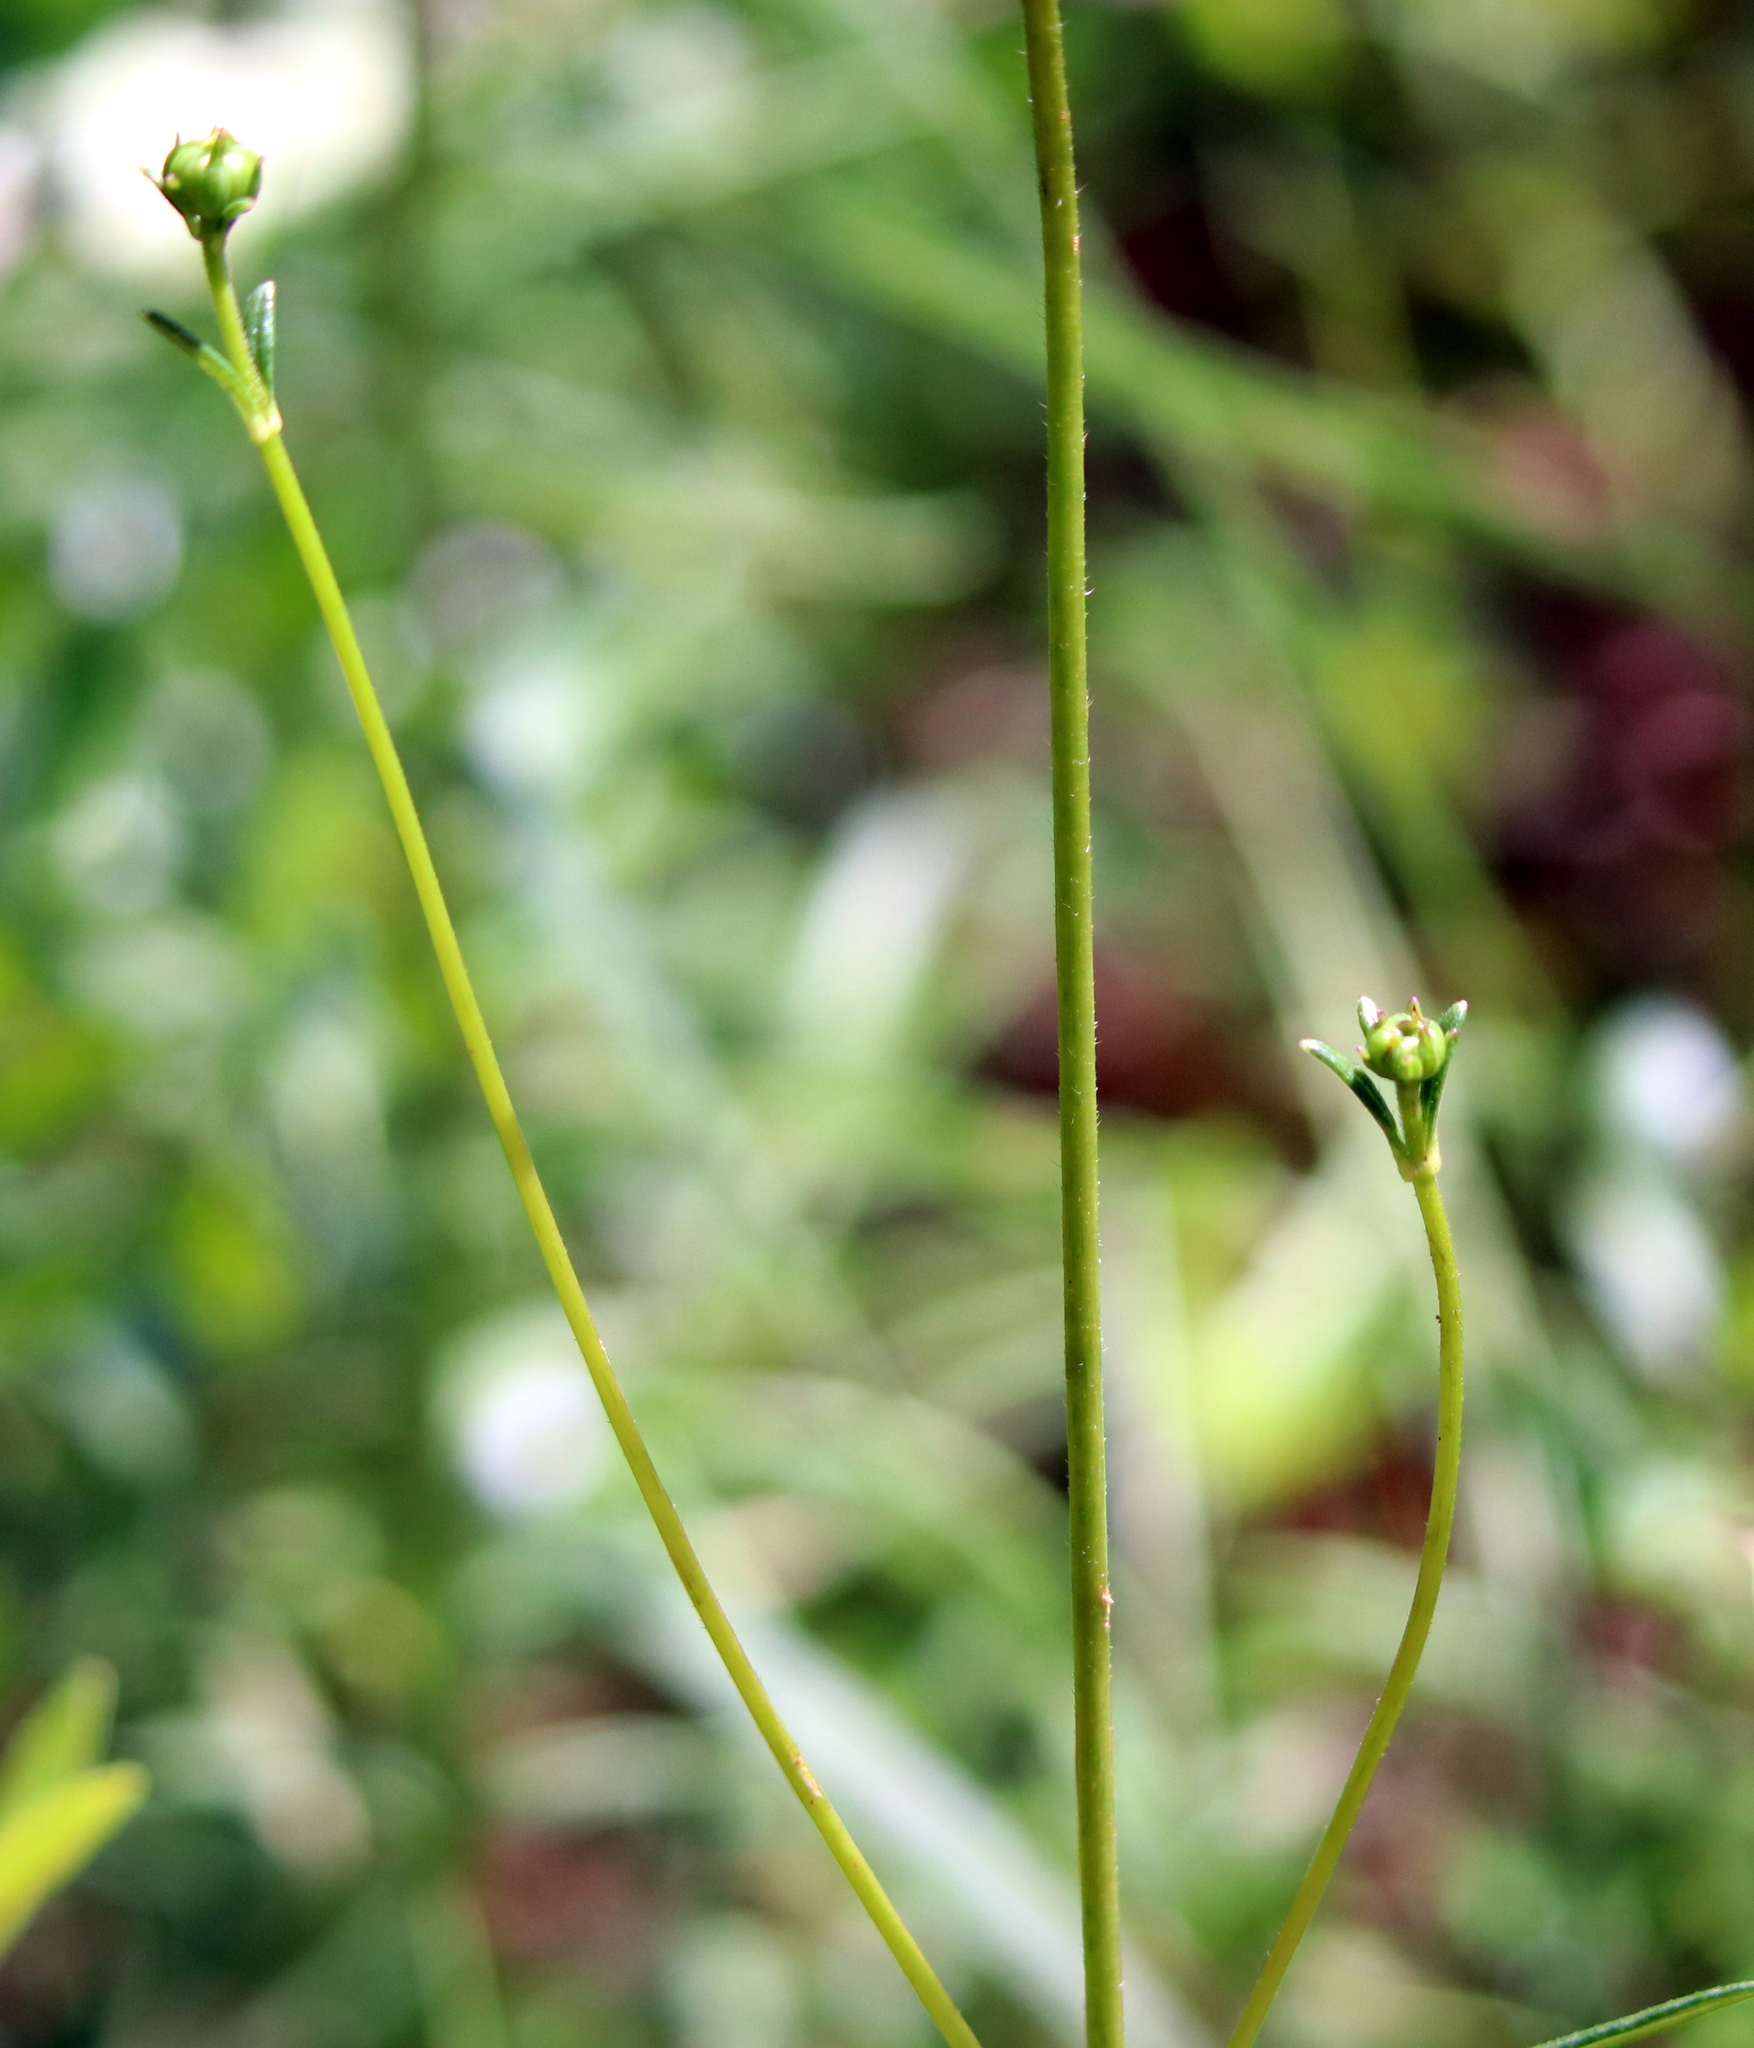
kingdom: Plantae
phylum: Tracheophyta
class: Magnoliopsida
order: Asterales
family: Asteraceae
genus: Helianthus
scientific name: Helianthus angustifolius
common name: Swamp sunflower
